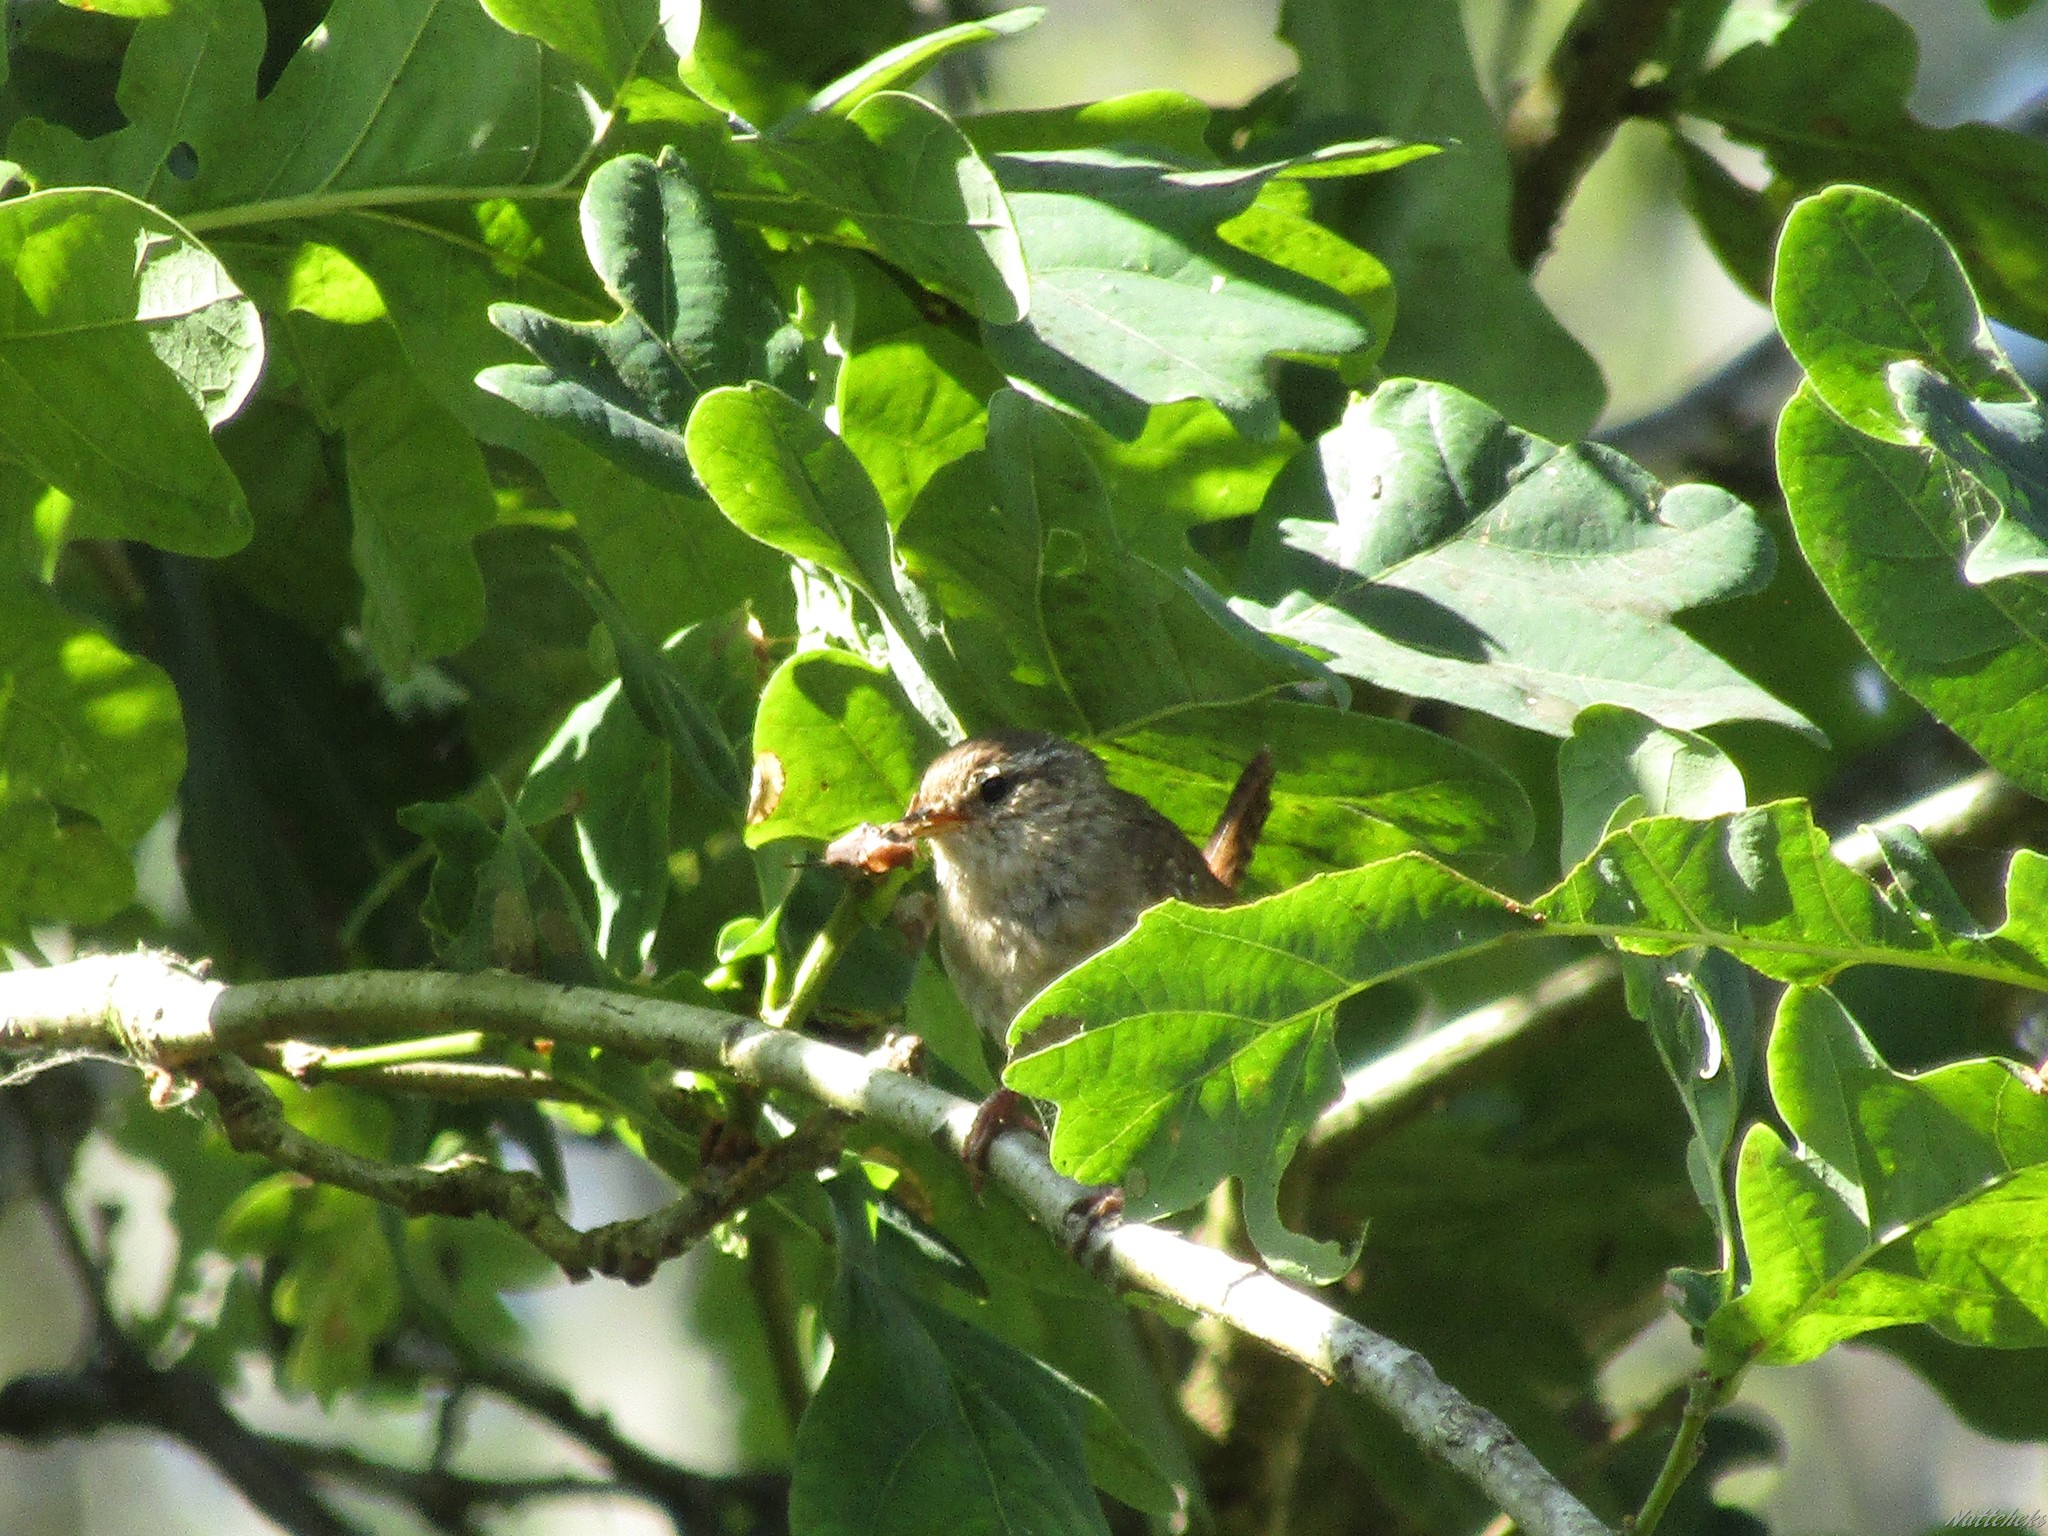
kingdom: Animalia
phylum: Chordata
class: Aves
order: Passeriformes
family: Troglodytidae
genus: Troglodytes
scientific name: Troglodytes troglodytes
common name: Eurasian wren
